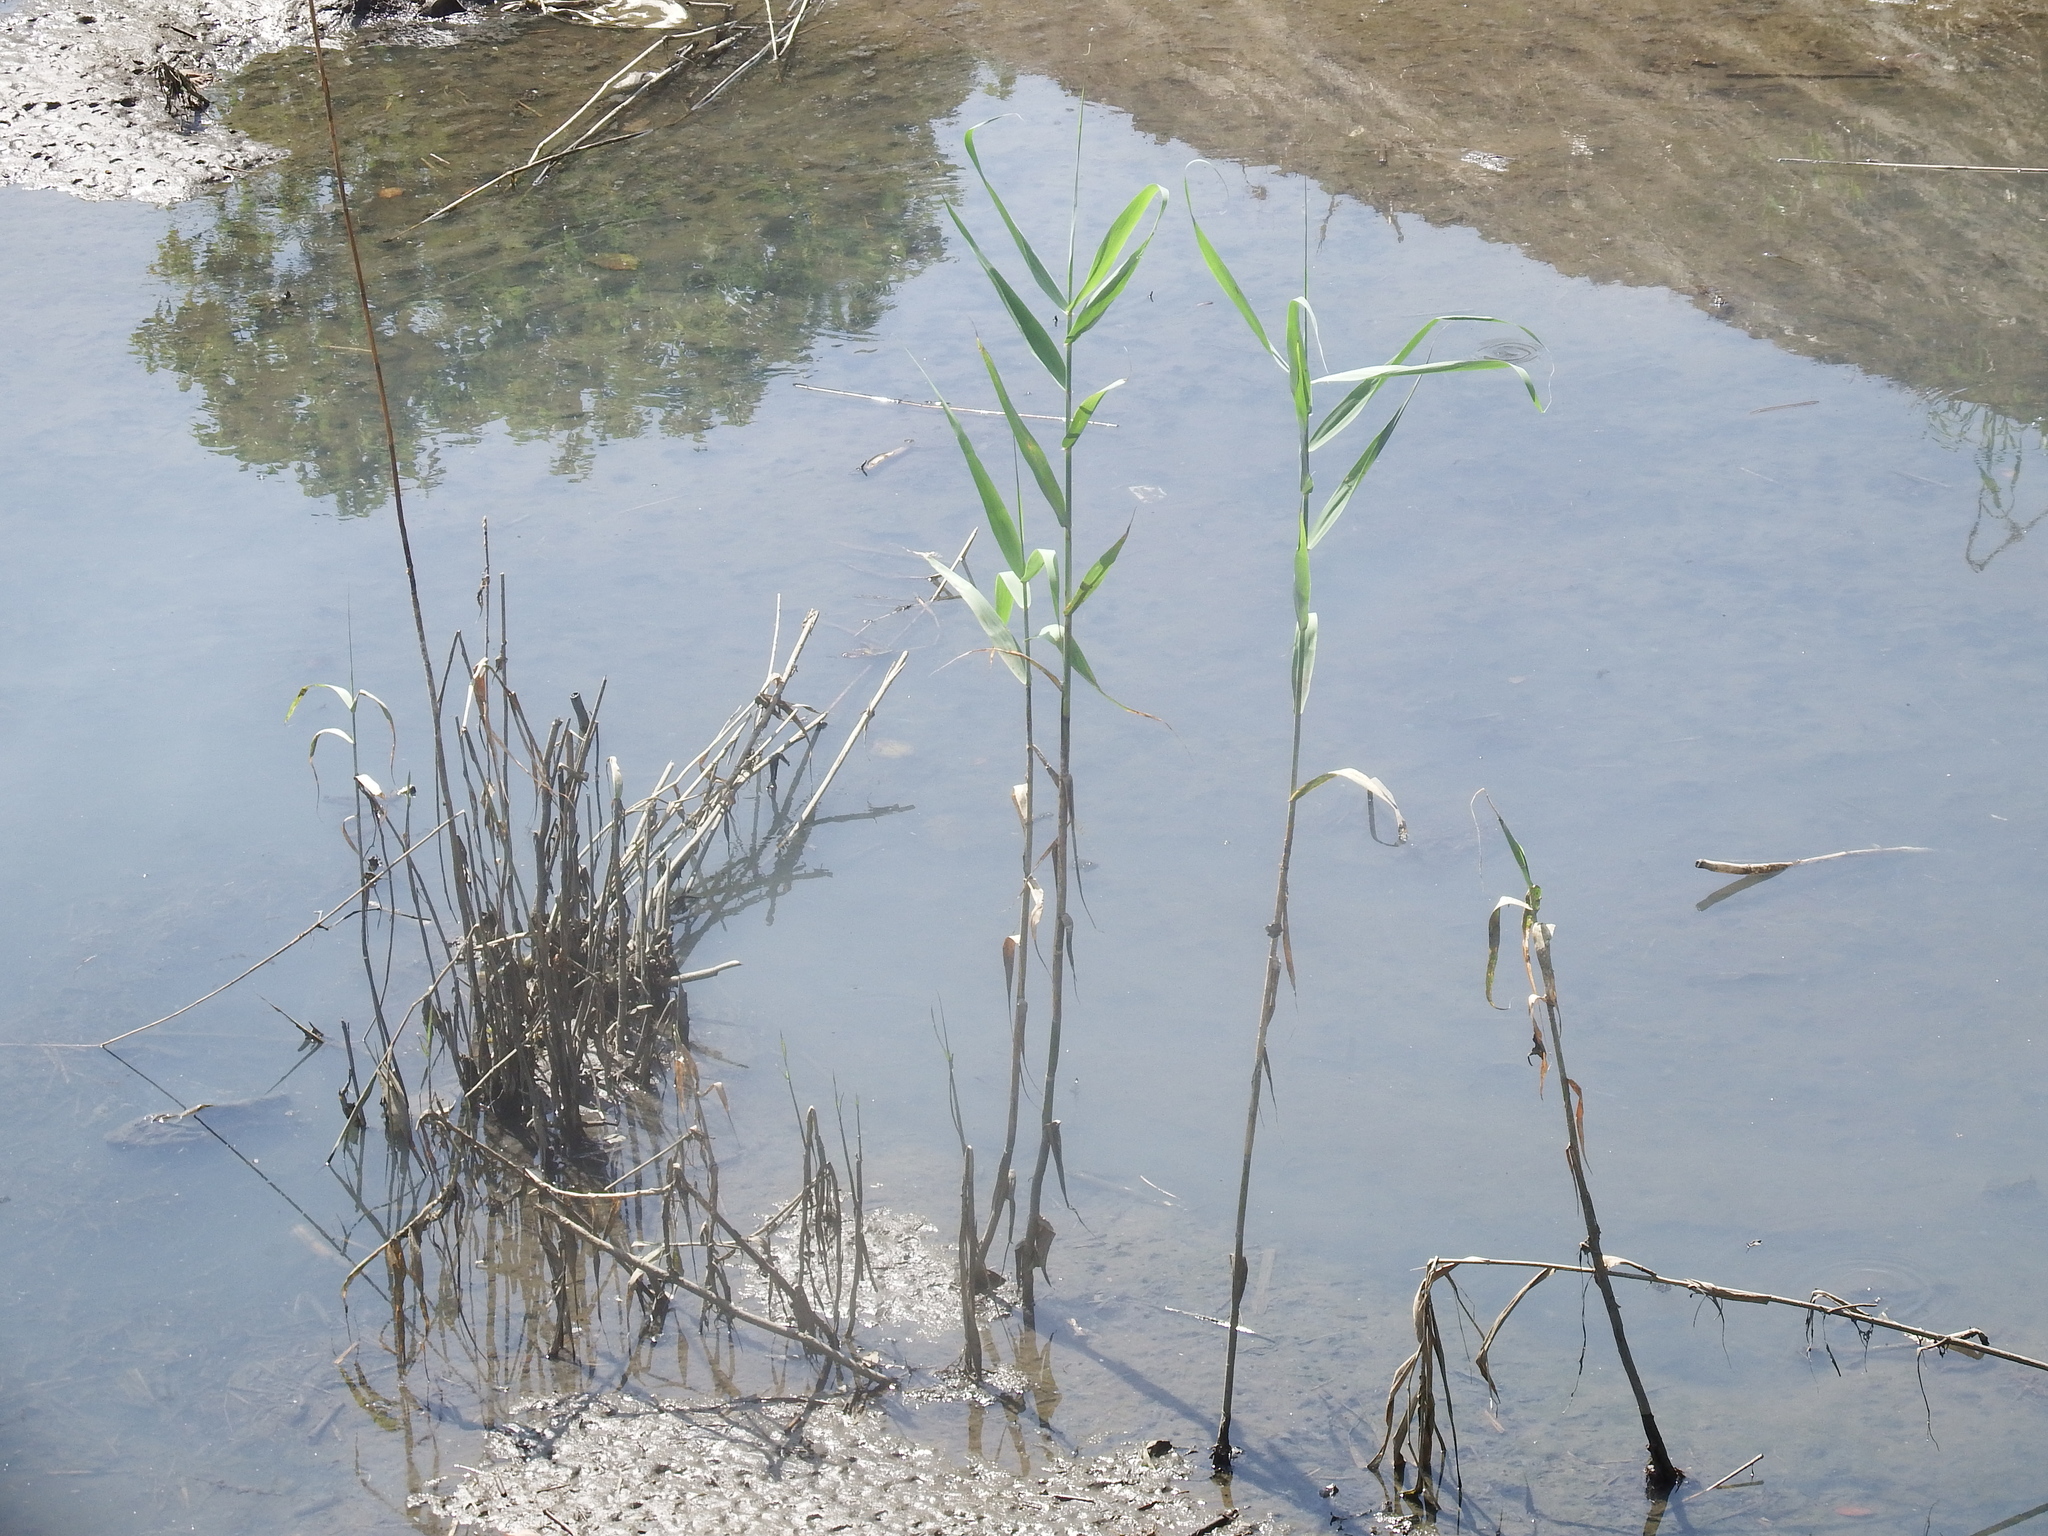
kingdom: Plantae
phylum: Tracheophyta
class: Liliopsida
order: Poales
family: Poaceae
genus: Phragmites
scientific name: Phragmites australis
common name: Common reed
